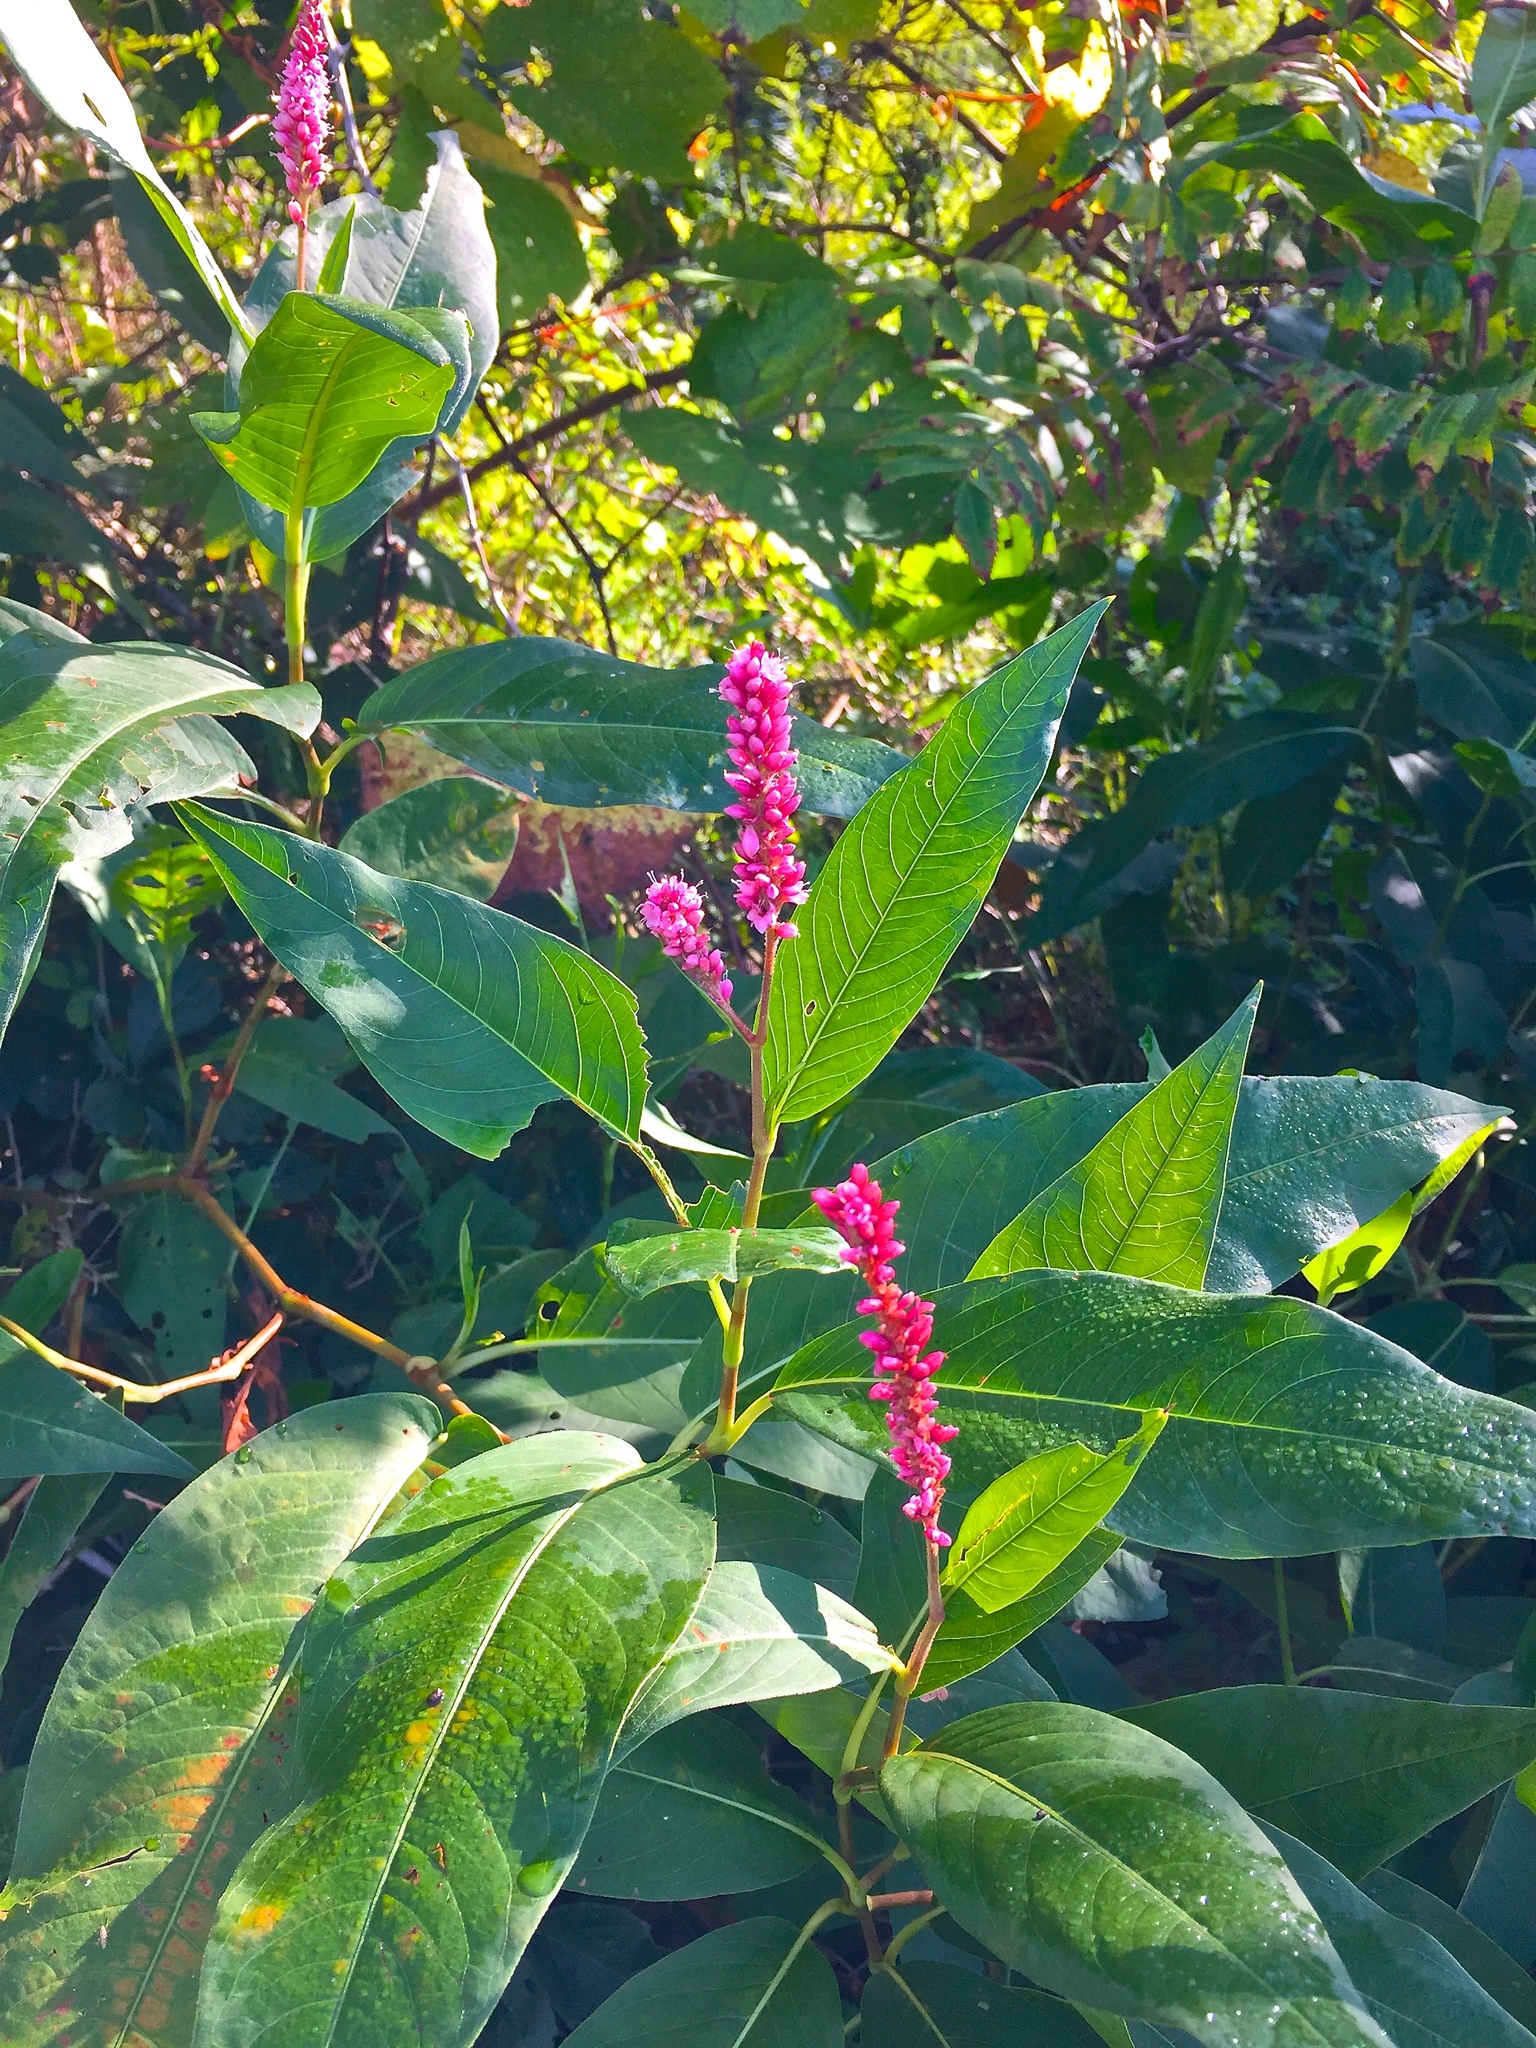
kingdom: Plantae
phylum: Tracheophyta
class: Magnoliopsida
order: Caryophyllales
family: Polygonaceae
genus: Persicaria
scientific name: Persicaria amphibia
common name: Amphibious bistort
